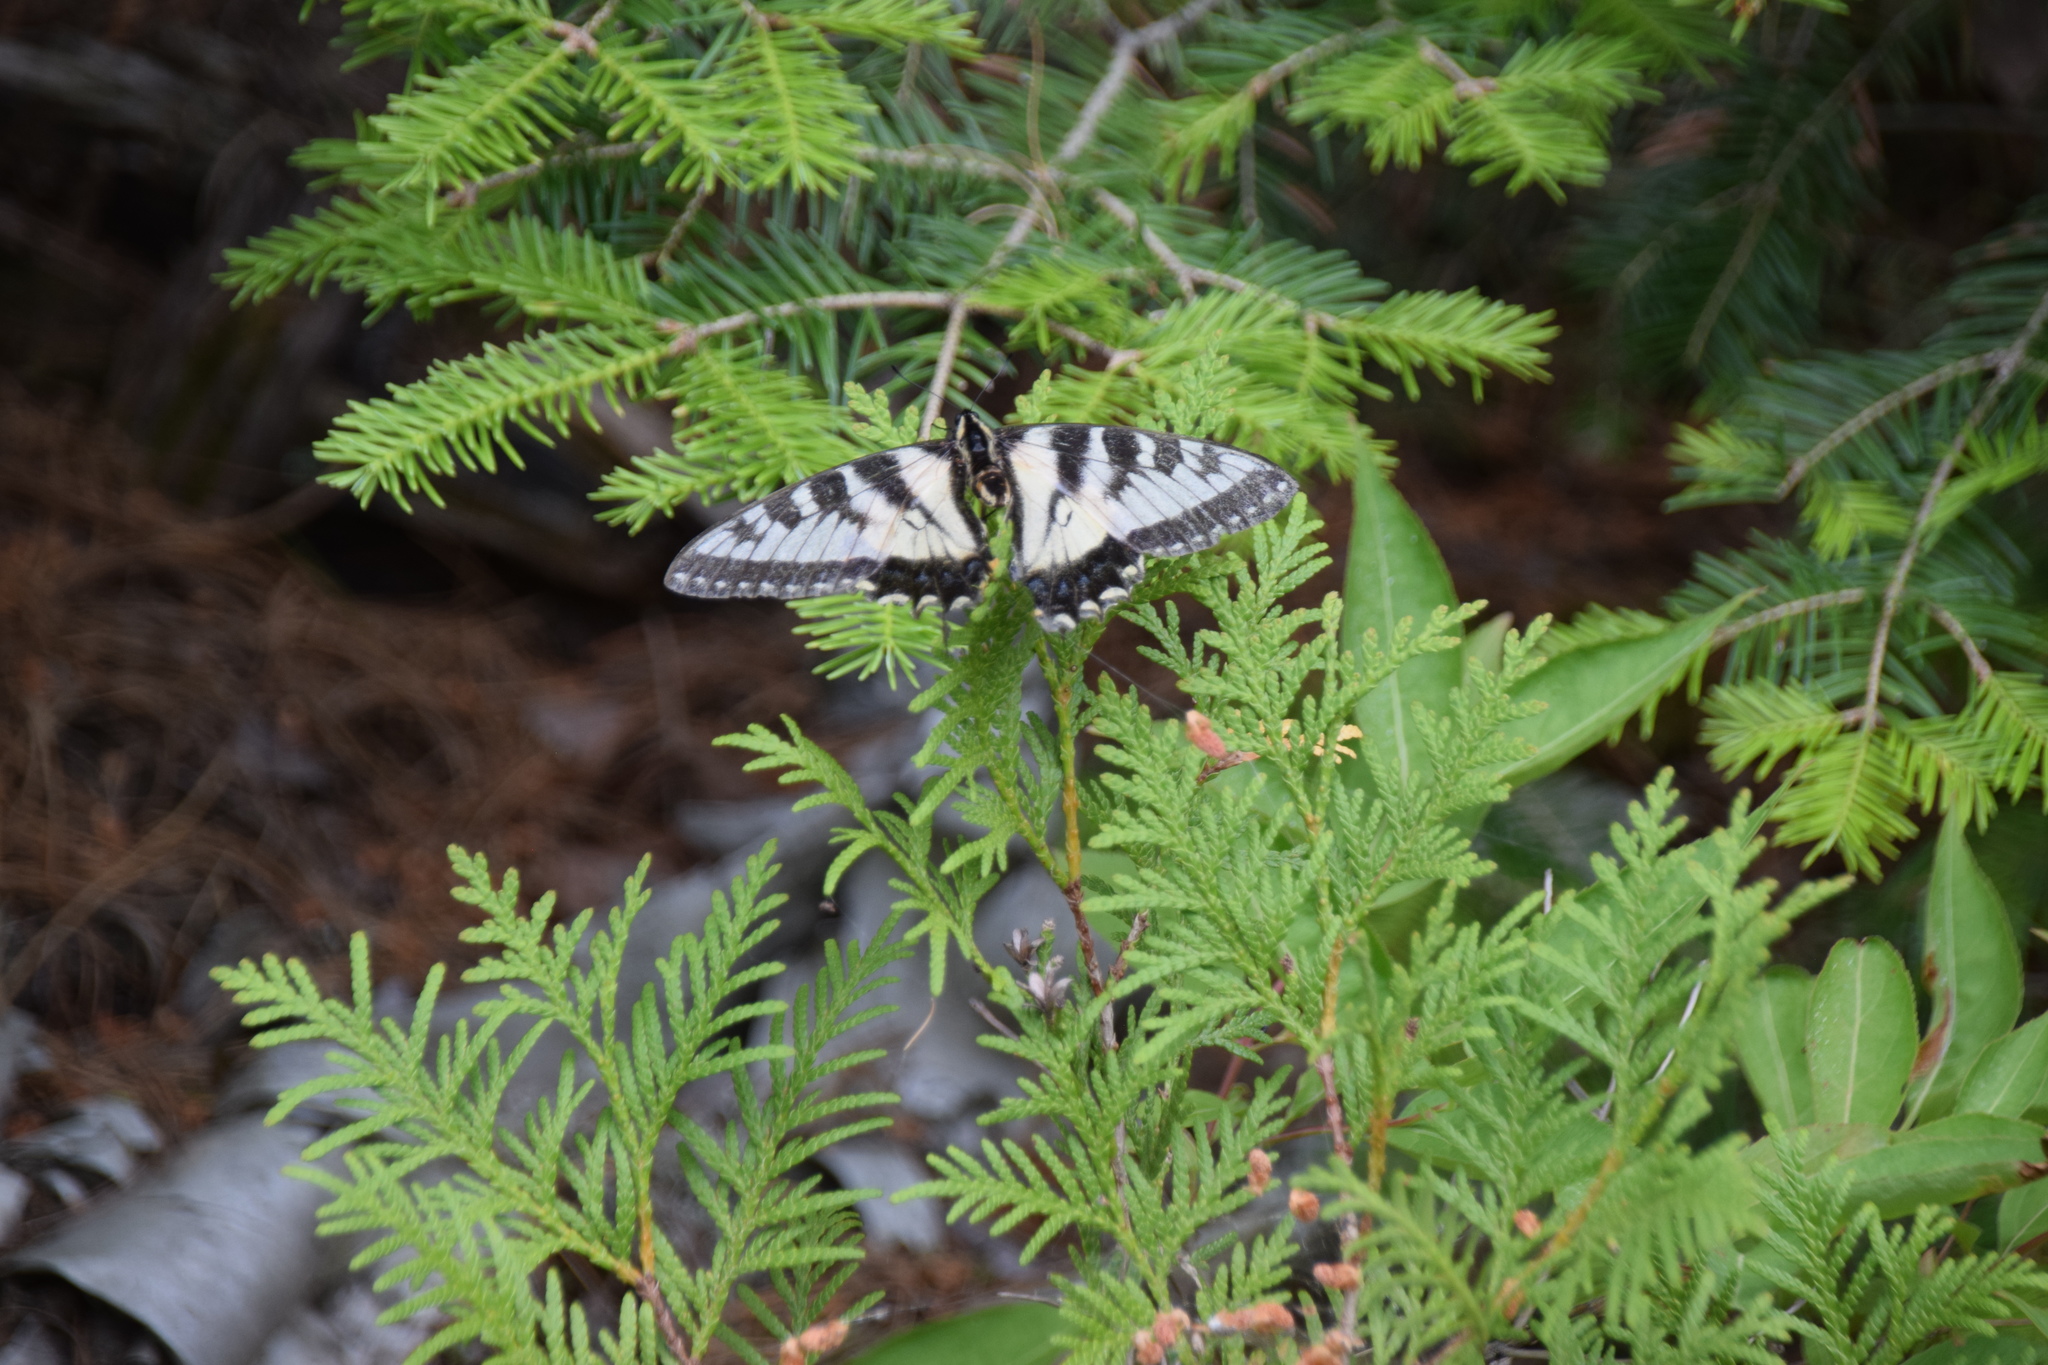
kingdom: Animalia
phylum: Arthropoda
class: Insecta
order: Lepidoptera
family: Papilionidae
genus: Papilio
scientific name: Papilio canadensis
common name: Canadian tiger swallowtail
